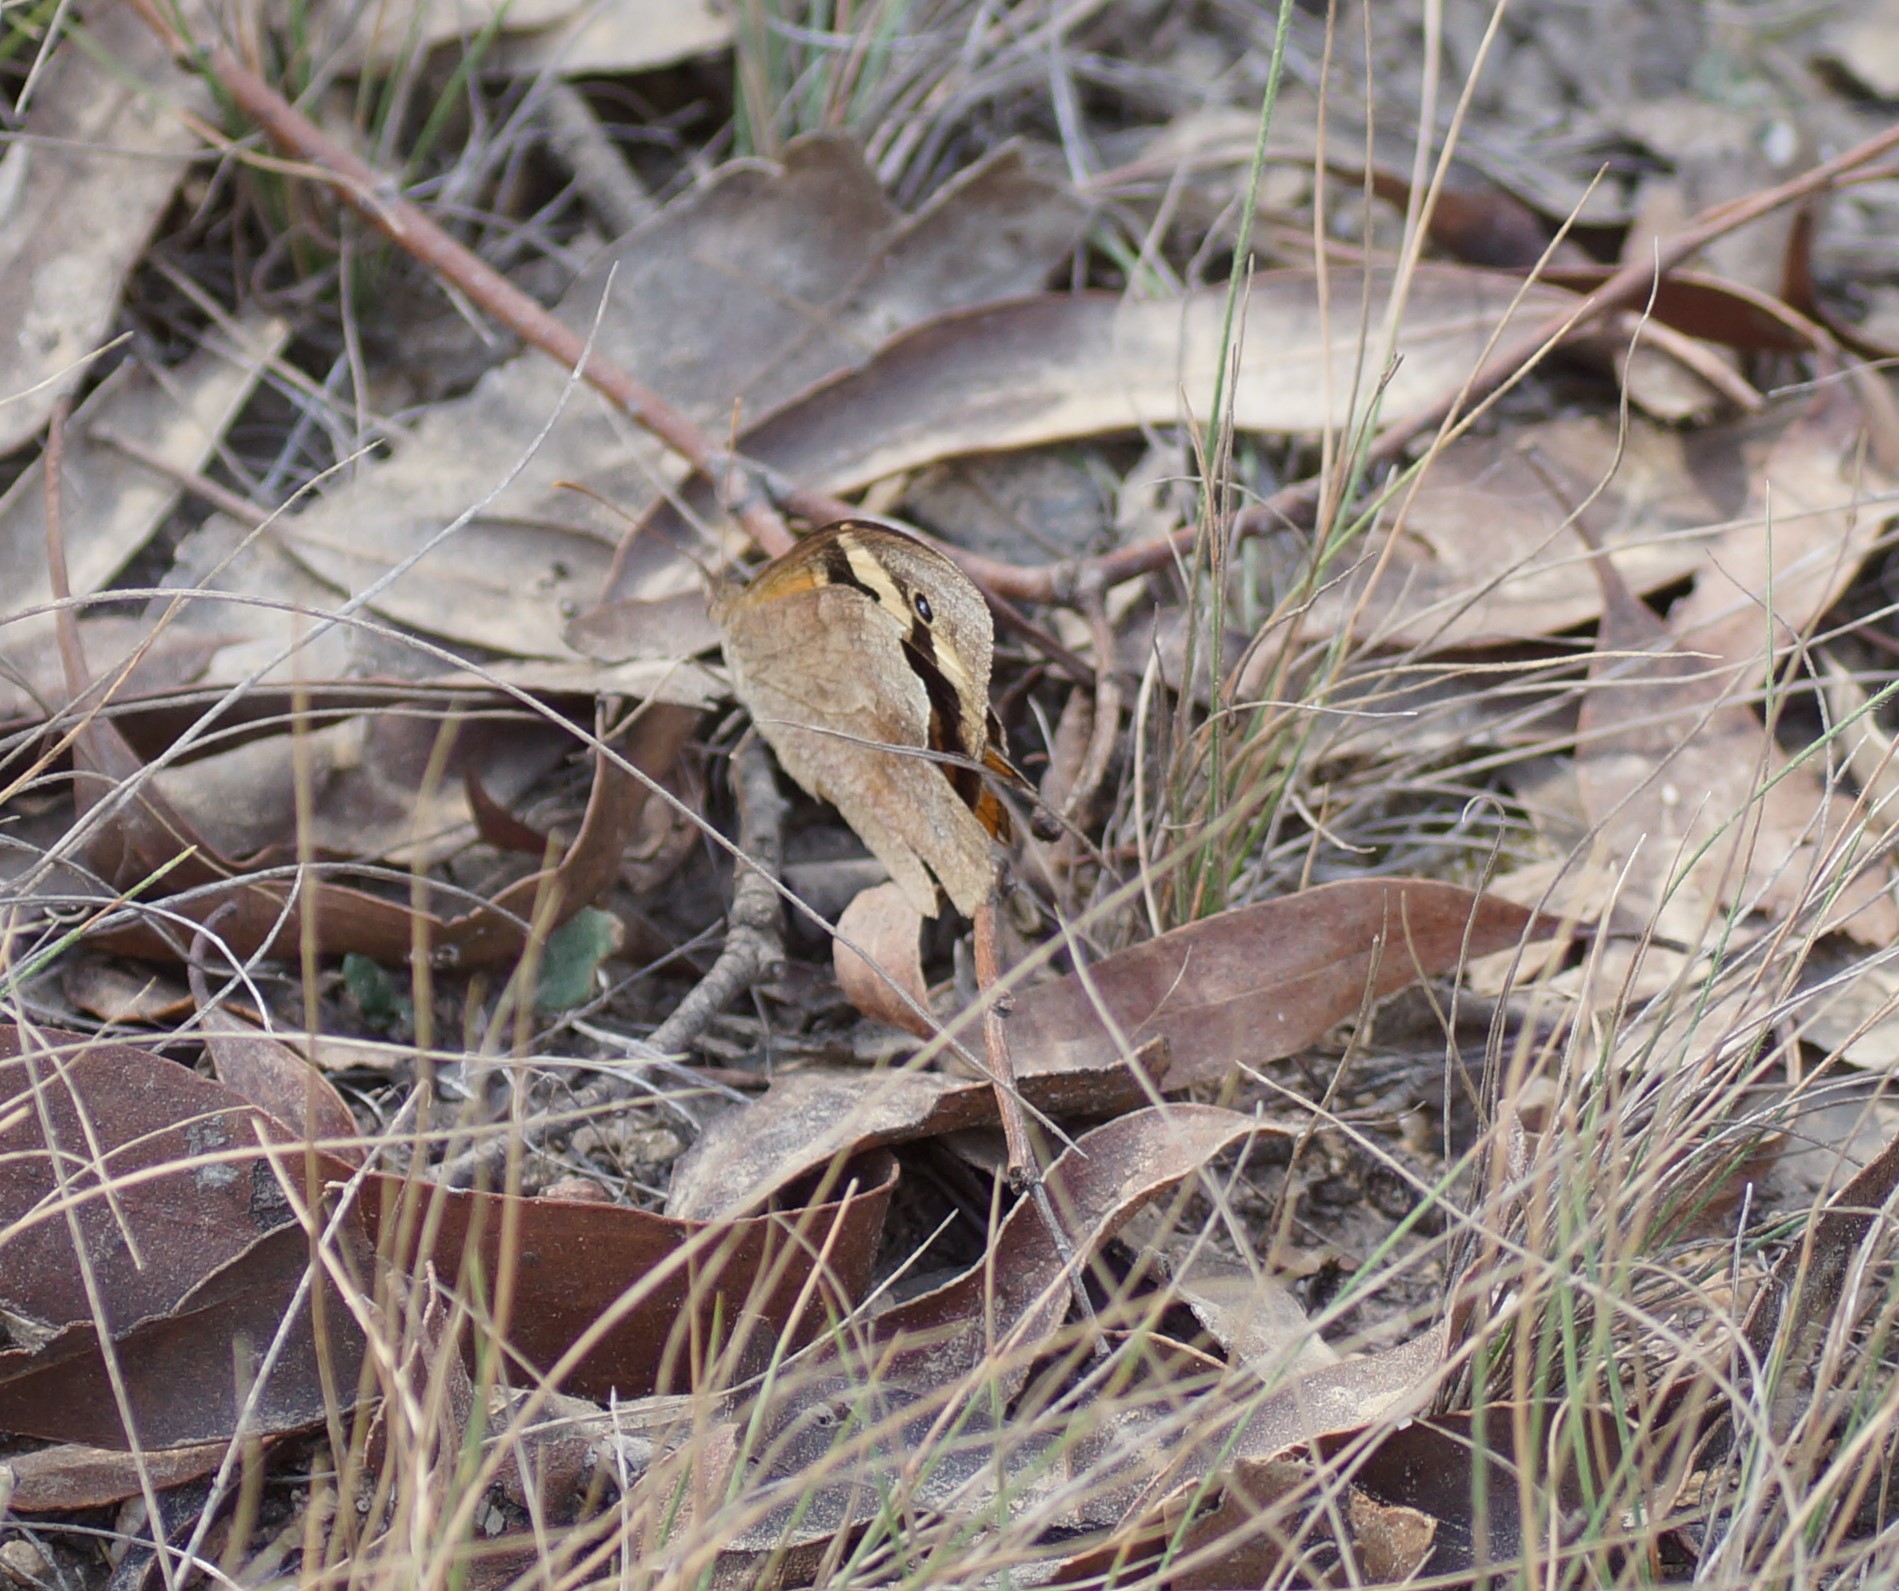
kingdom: Animalia
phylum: Arthropoda
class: Insecta
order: Lepidoptera
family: Nymphalidae
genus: Heteronympha
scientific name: Heteronympha merope
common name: Common brown
